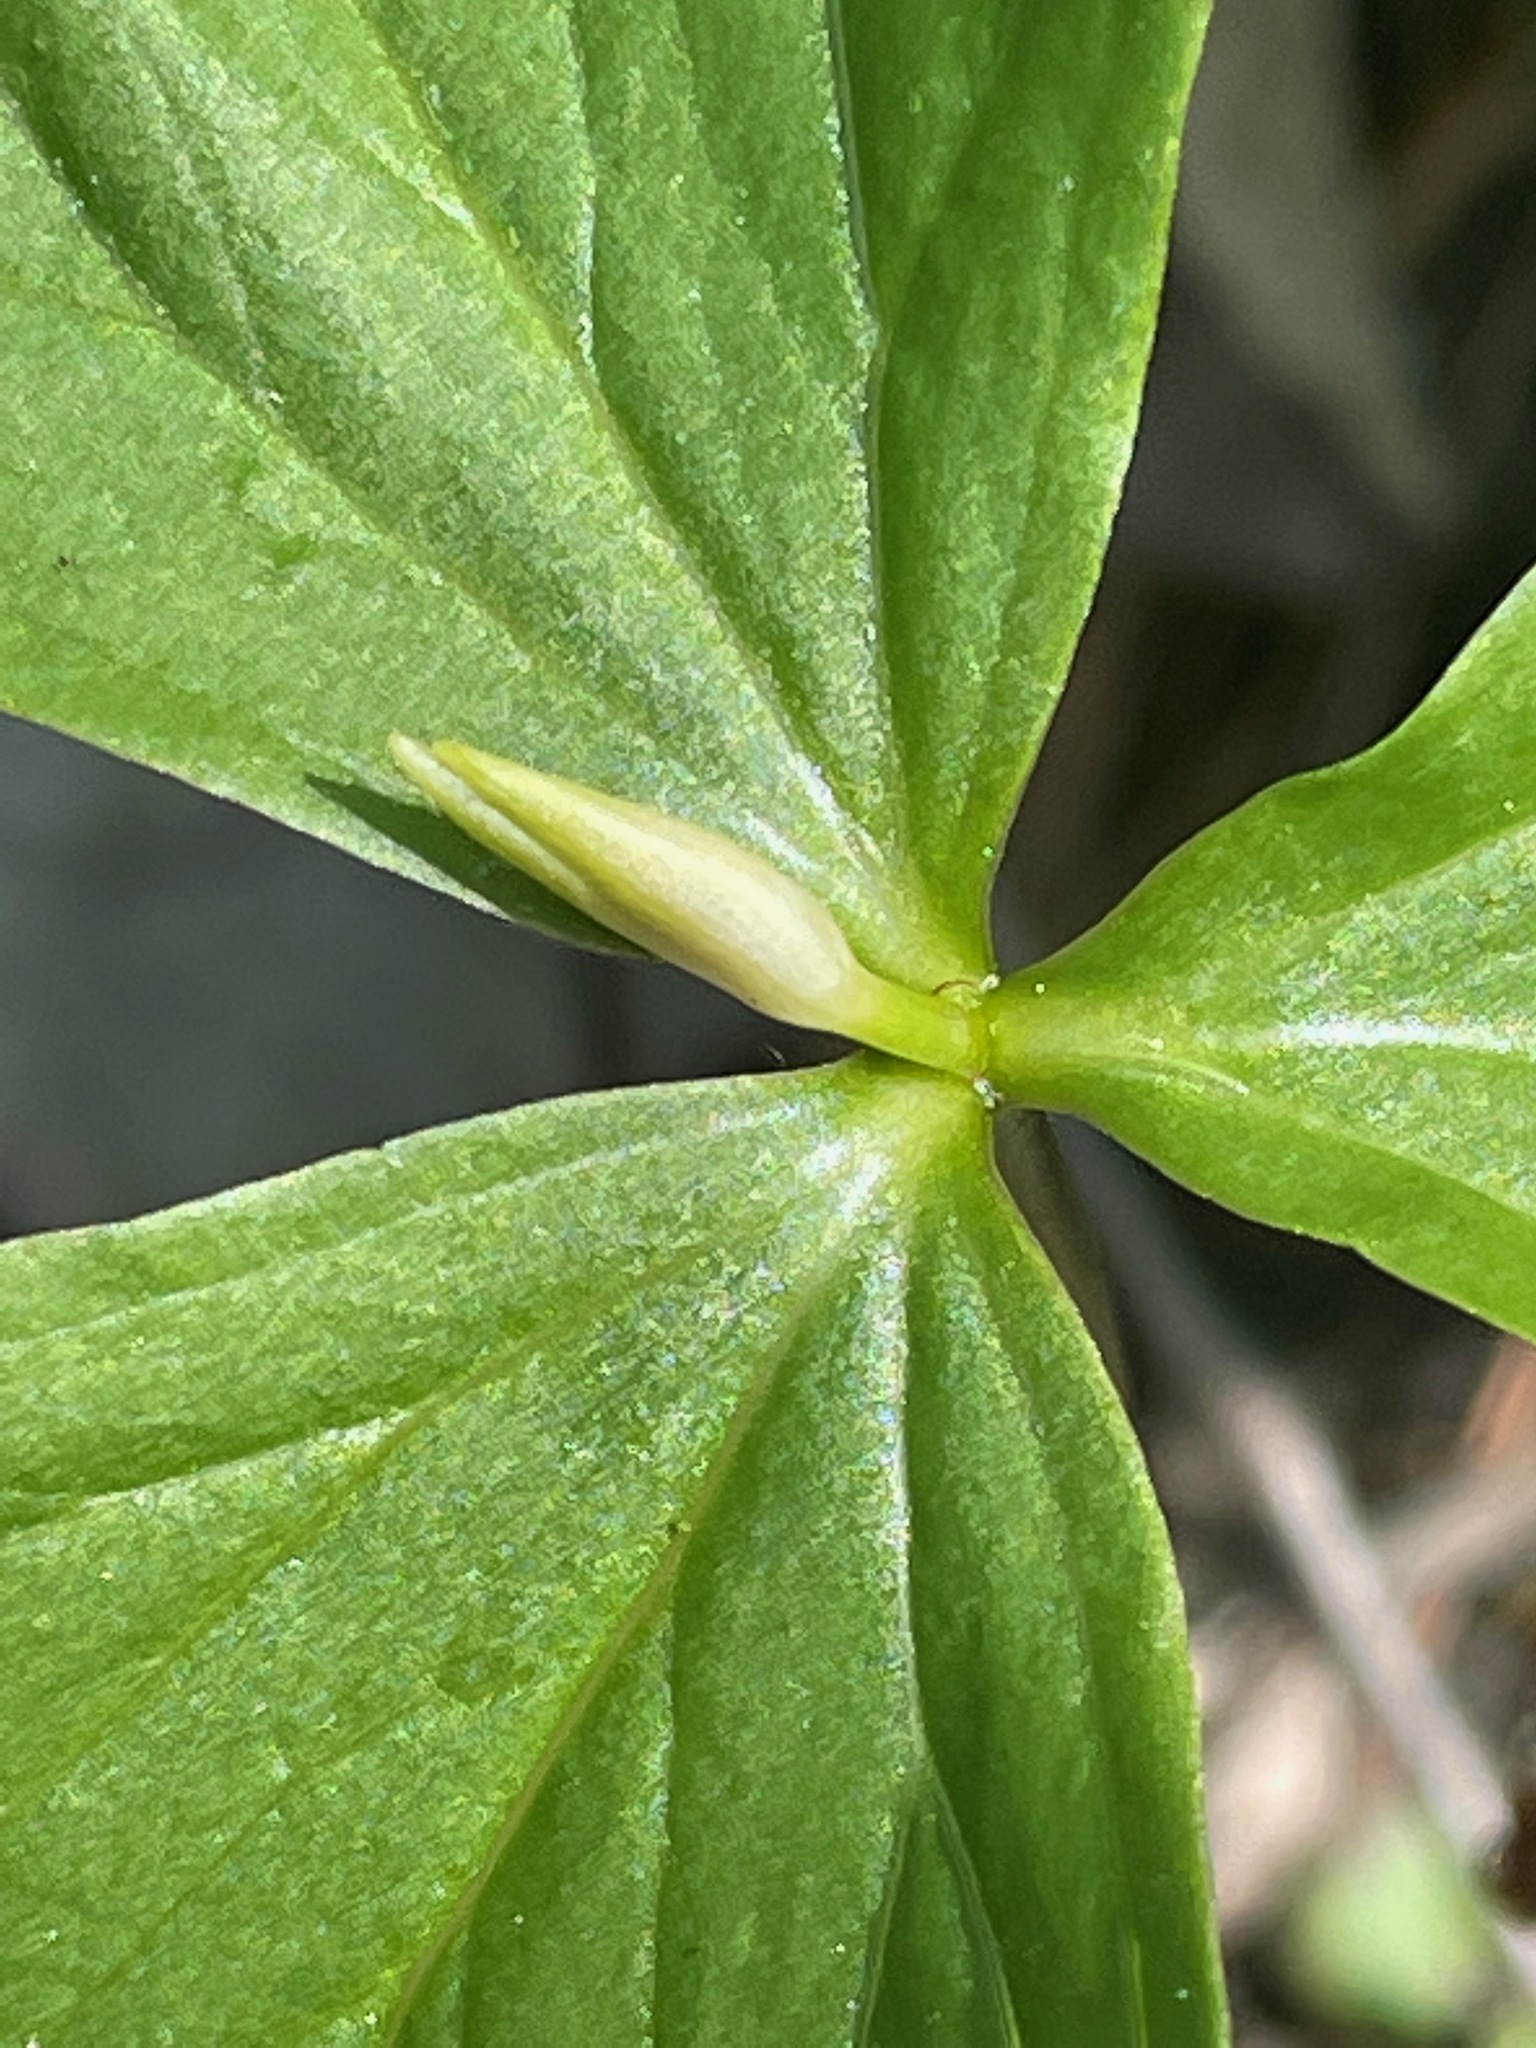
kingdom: Plantae
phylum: Tracheophyta
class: Liliopsida
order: Liliales
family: Melanthiaceae
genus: Trillium
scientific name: Trillium cernuum
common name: Nodding trillium
